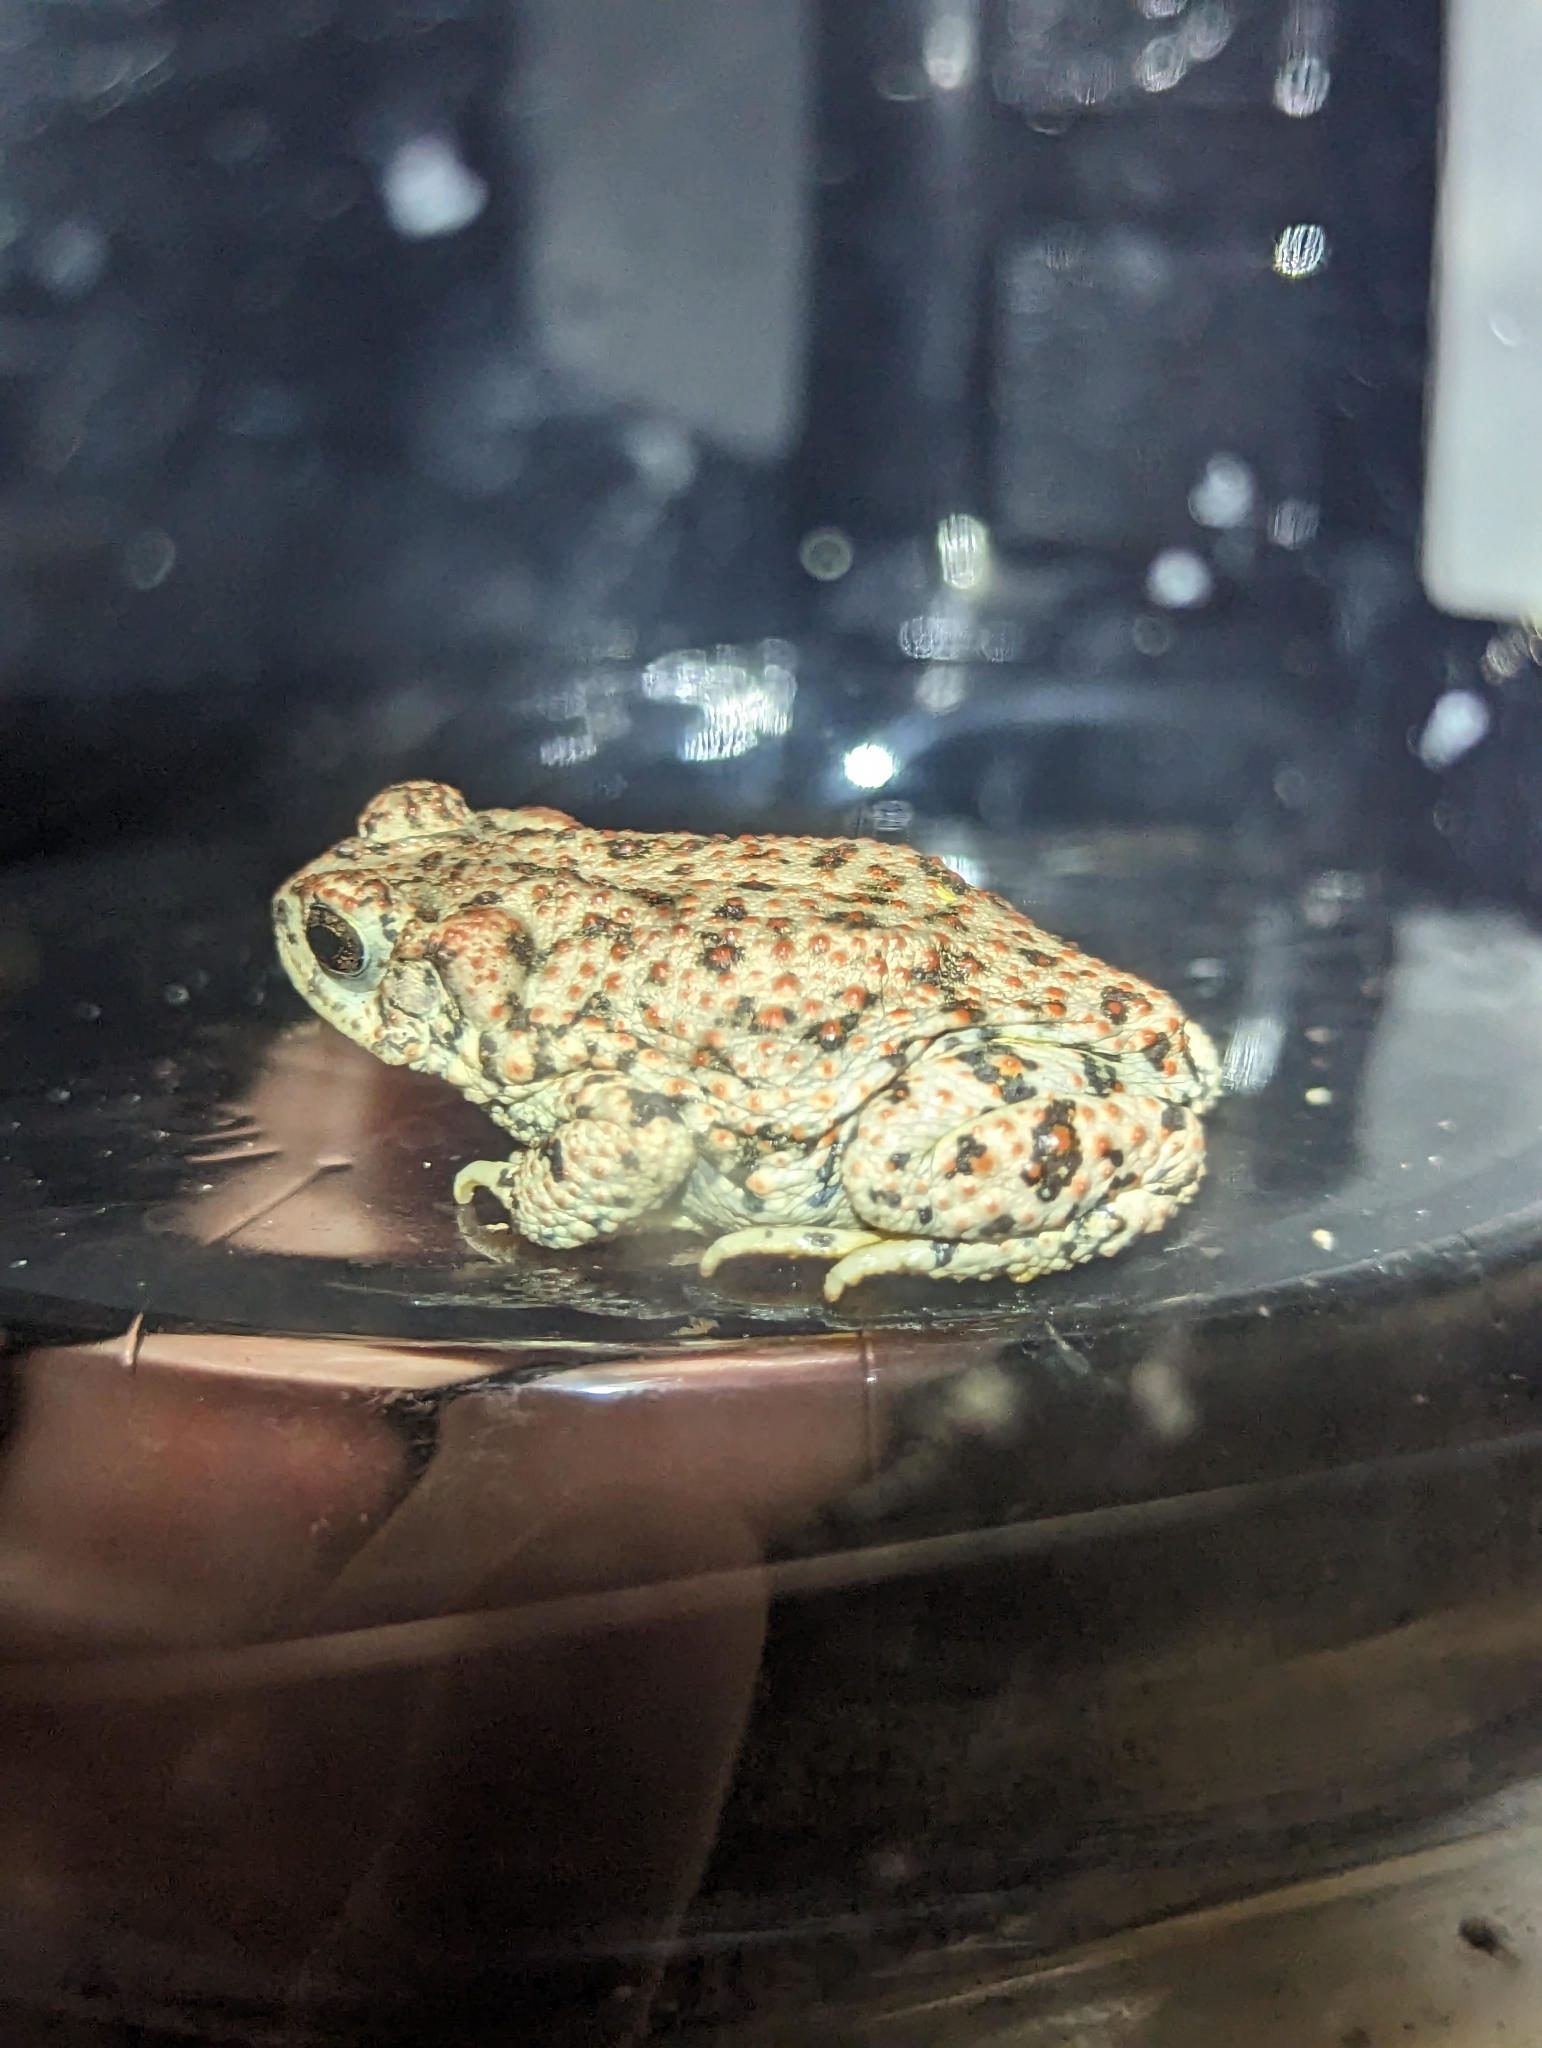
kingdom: Animalia
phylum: Chordata
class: Amphibia
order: Anura
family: Bufonidae
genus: Anaxyrus
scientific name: Anaxyrus punctatus
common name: Red-spotted toad
